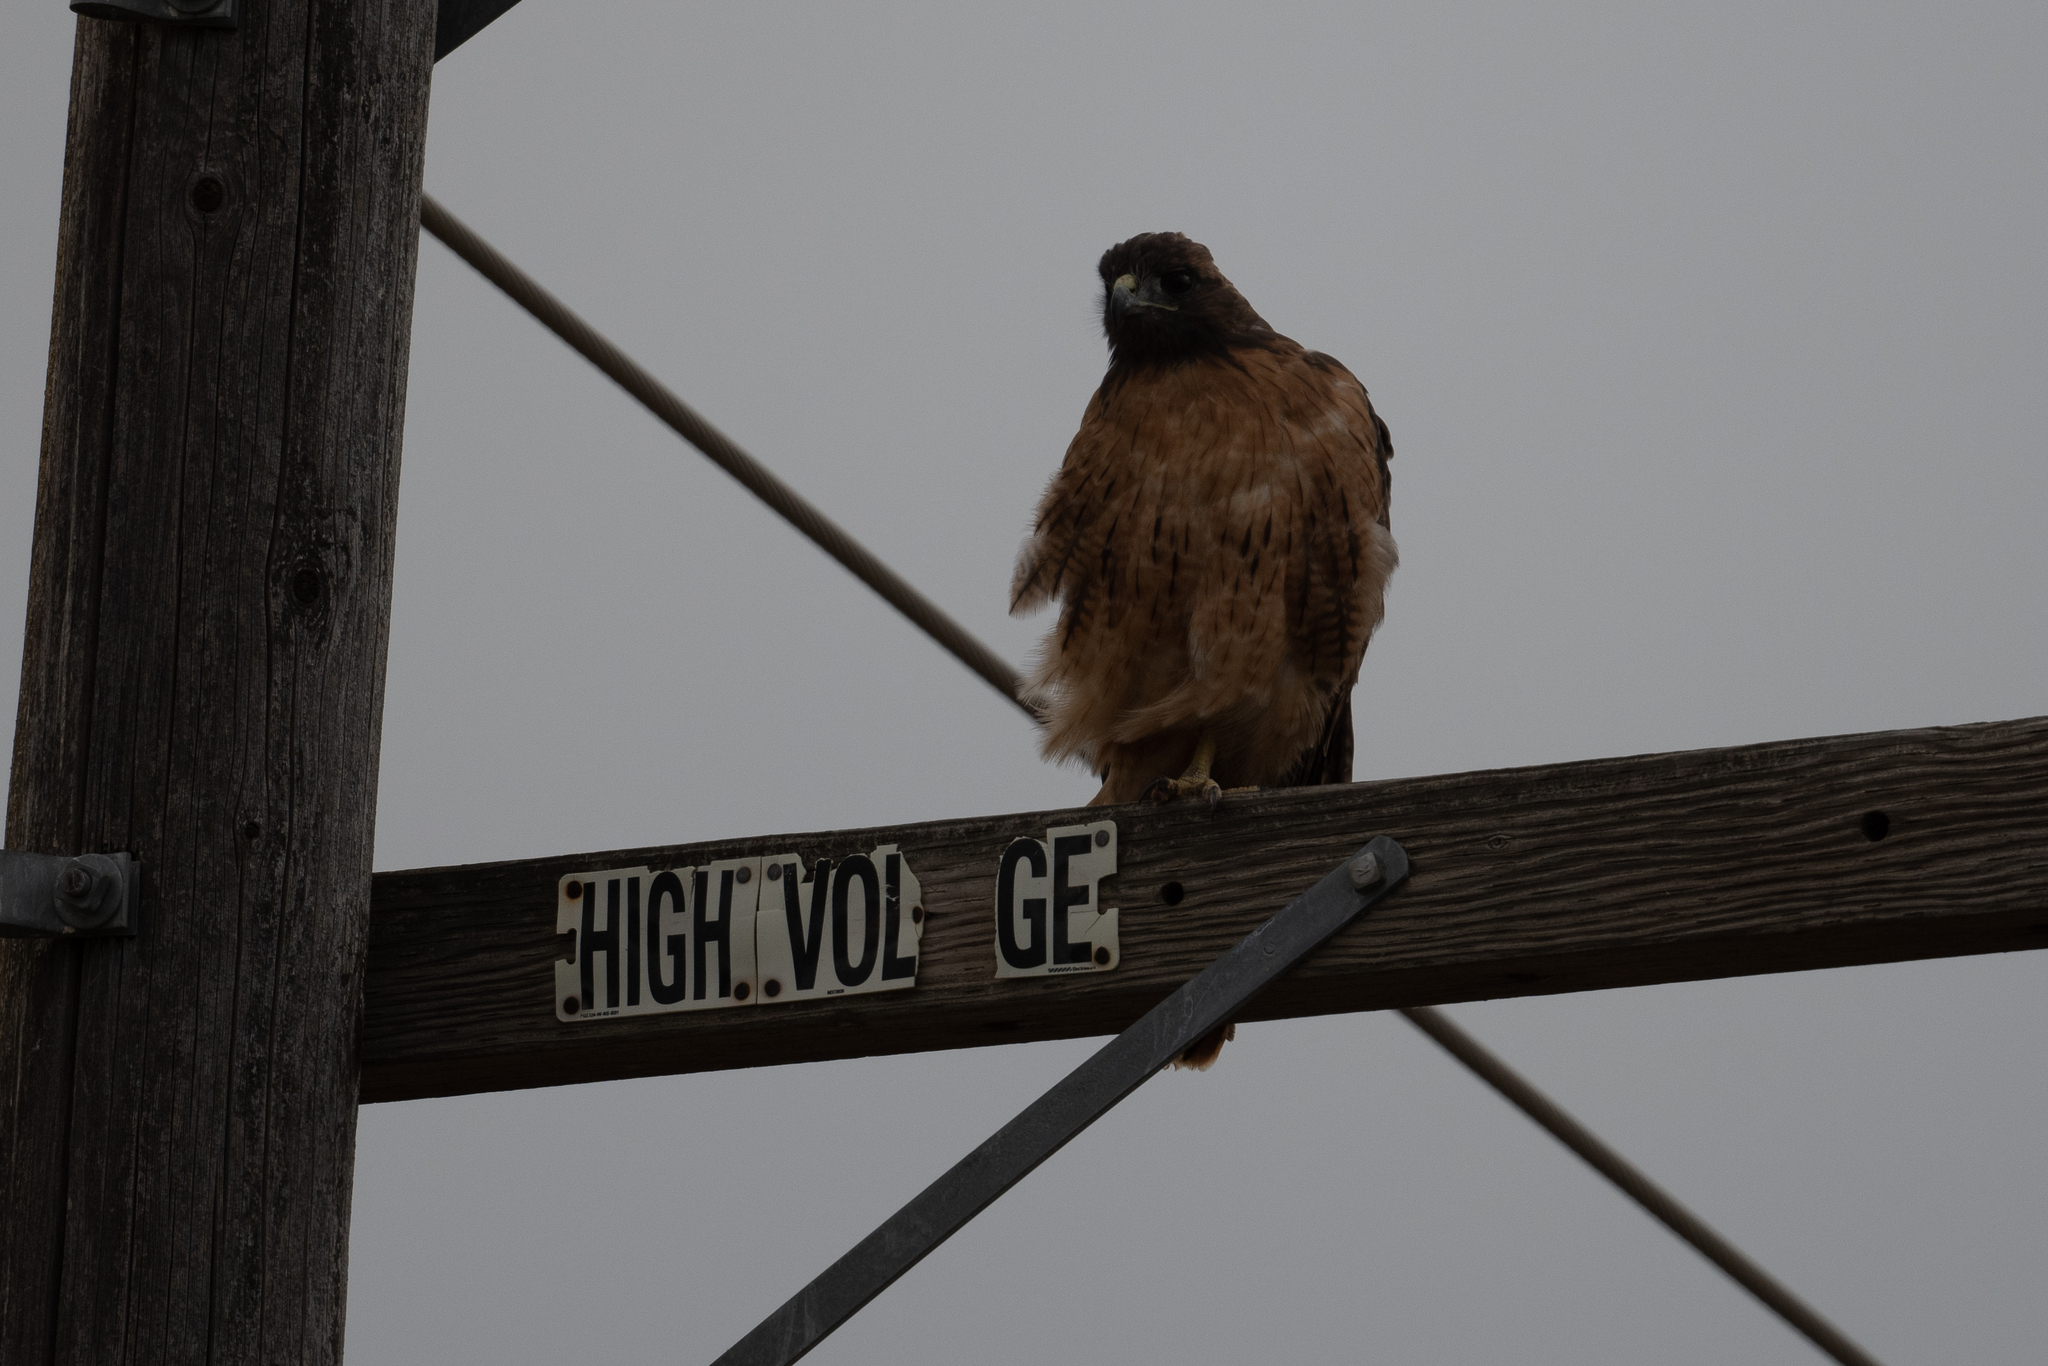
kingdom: Animalia
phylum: Chordata
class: Aves
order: Accipitriformes
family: Accipitridae
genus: Buteo
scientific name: Buteo jamaicensis
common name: Red-tailed hawk
